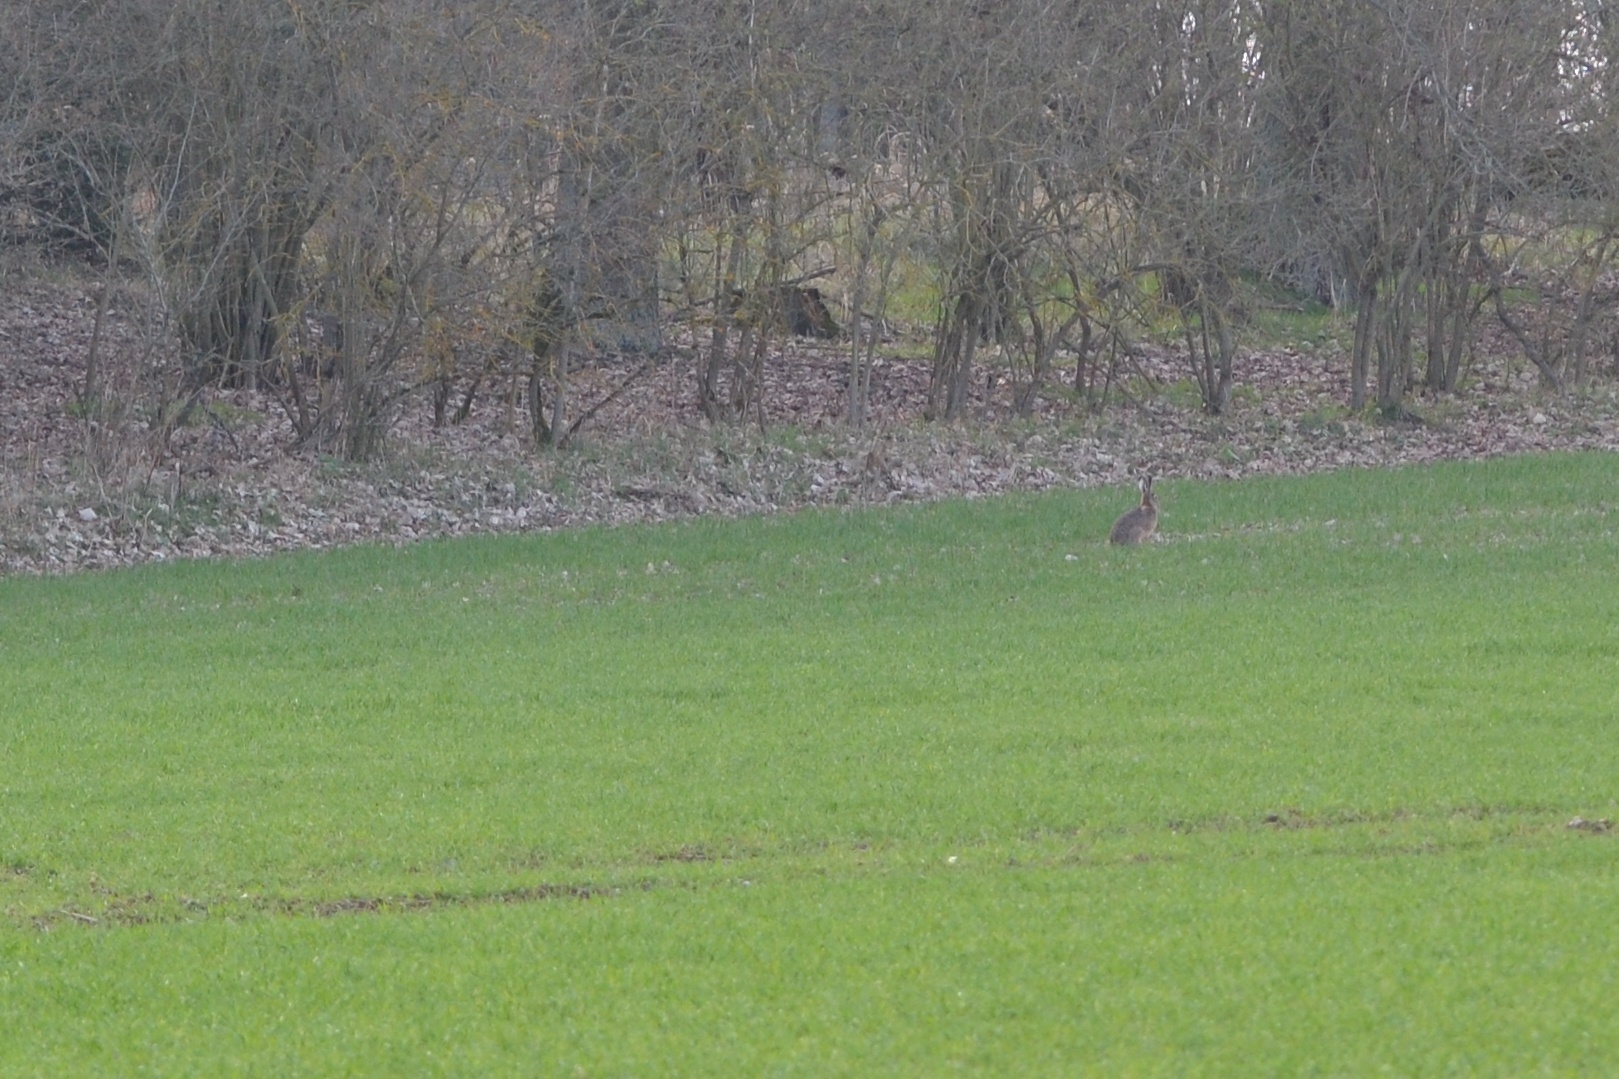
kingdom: Animalia
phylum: Chordata
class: Mammalia
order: Lagomorpha
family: Leporidae
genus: Lepus
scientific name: Lepus europaeus
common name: European hare
